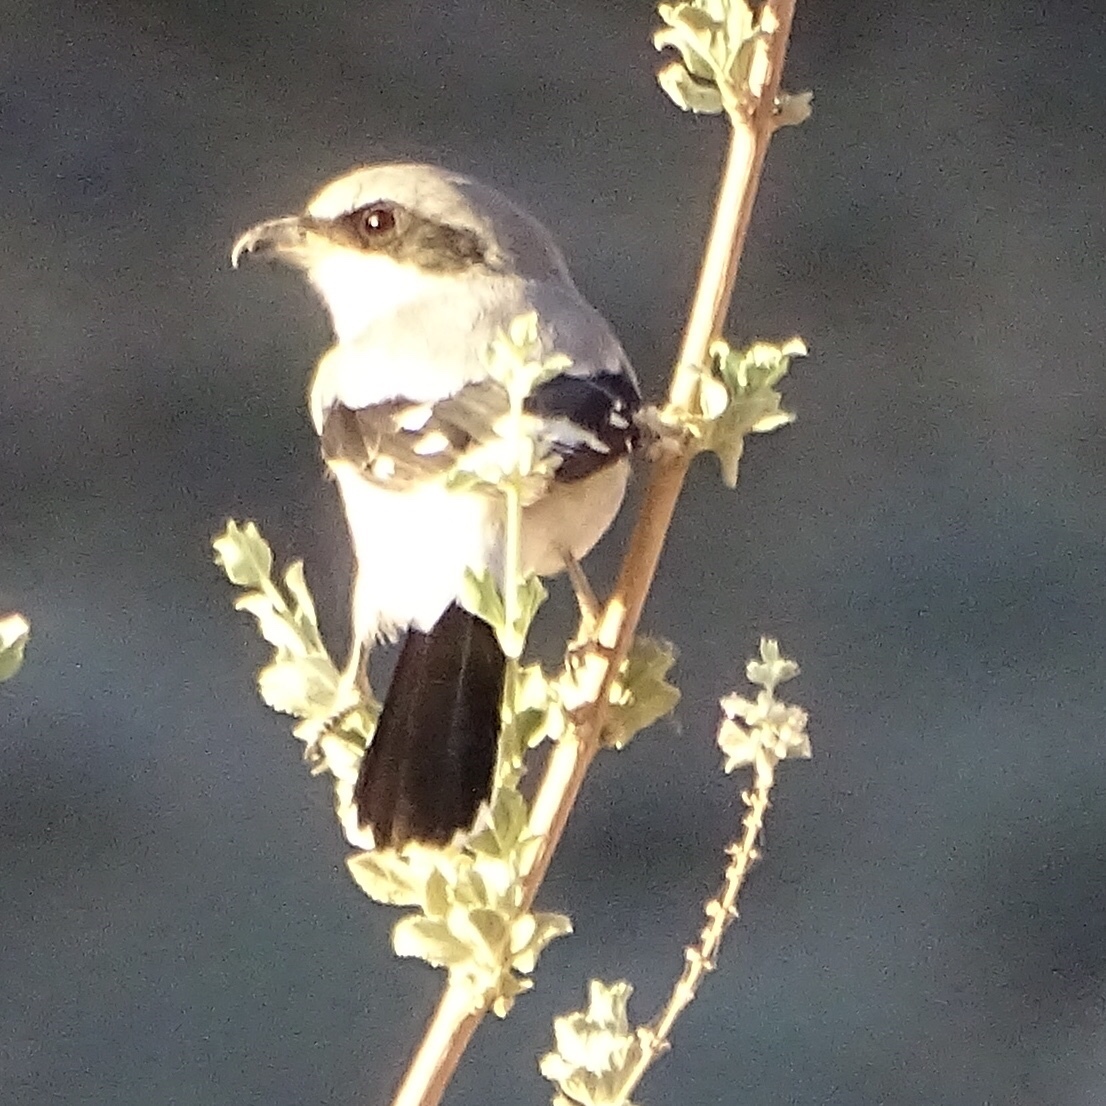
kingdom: Animalia
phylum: Chordata
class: Aves
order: Passeriformes
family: Laniidae
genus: Lanius
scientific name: Lanius ludovicianus
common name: Loggerhead shrike
